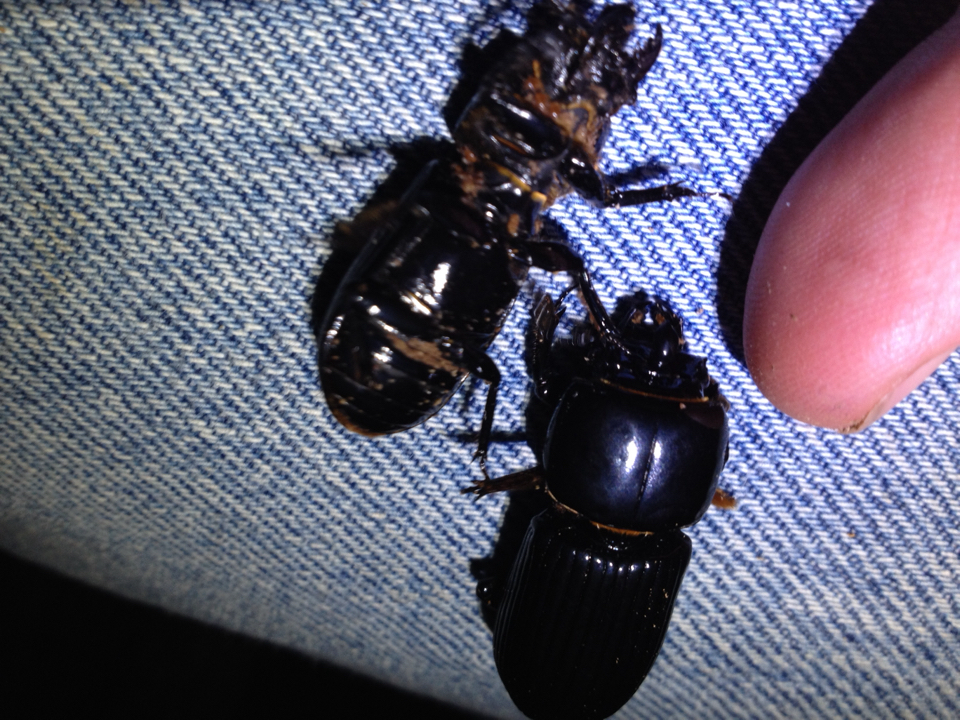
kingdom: Animalia
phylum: Arthropoda
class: Insecta
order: Coleoptera
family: Passalidae
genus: Odontotaenius
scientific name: Odontotaenius disjunctus
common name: Patent leather beetle
